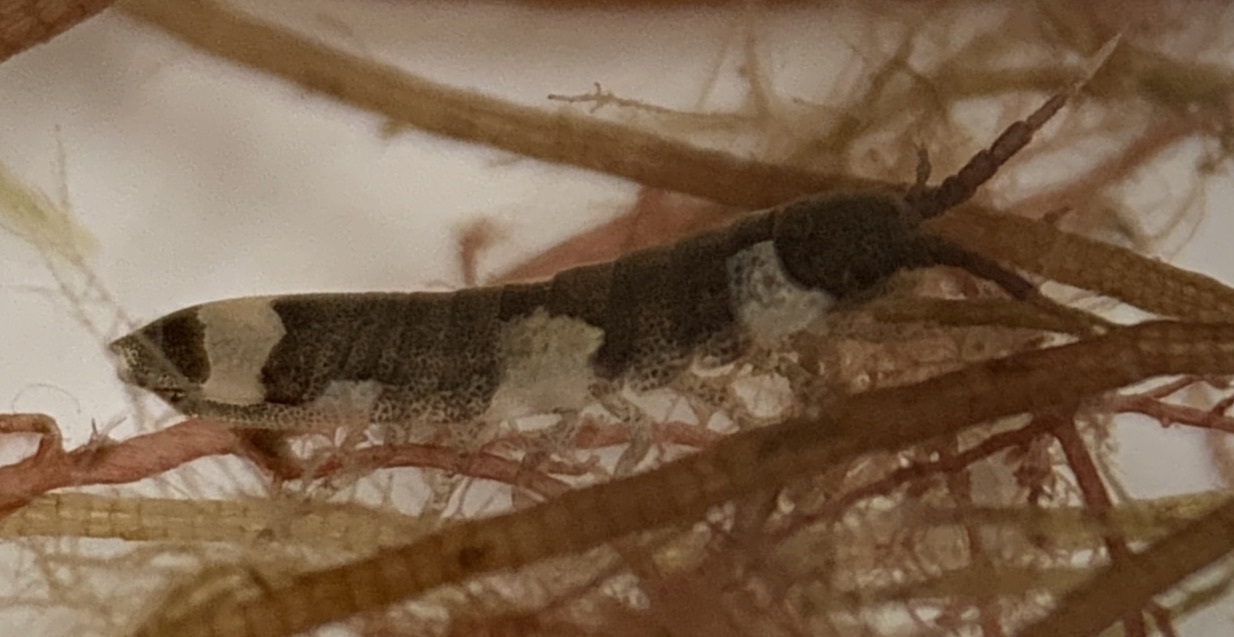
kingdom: Animalia
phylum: Arthropoda
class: Malacostraca
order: Isopoda
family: Idoteidae
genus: Idotea
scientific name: Idotea balthica
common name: Baltic isopod
